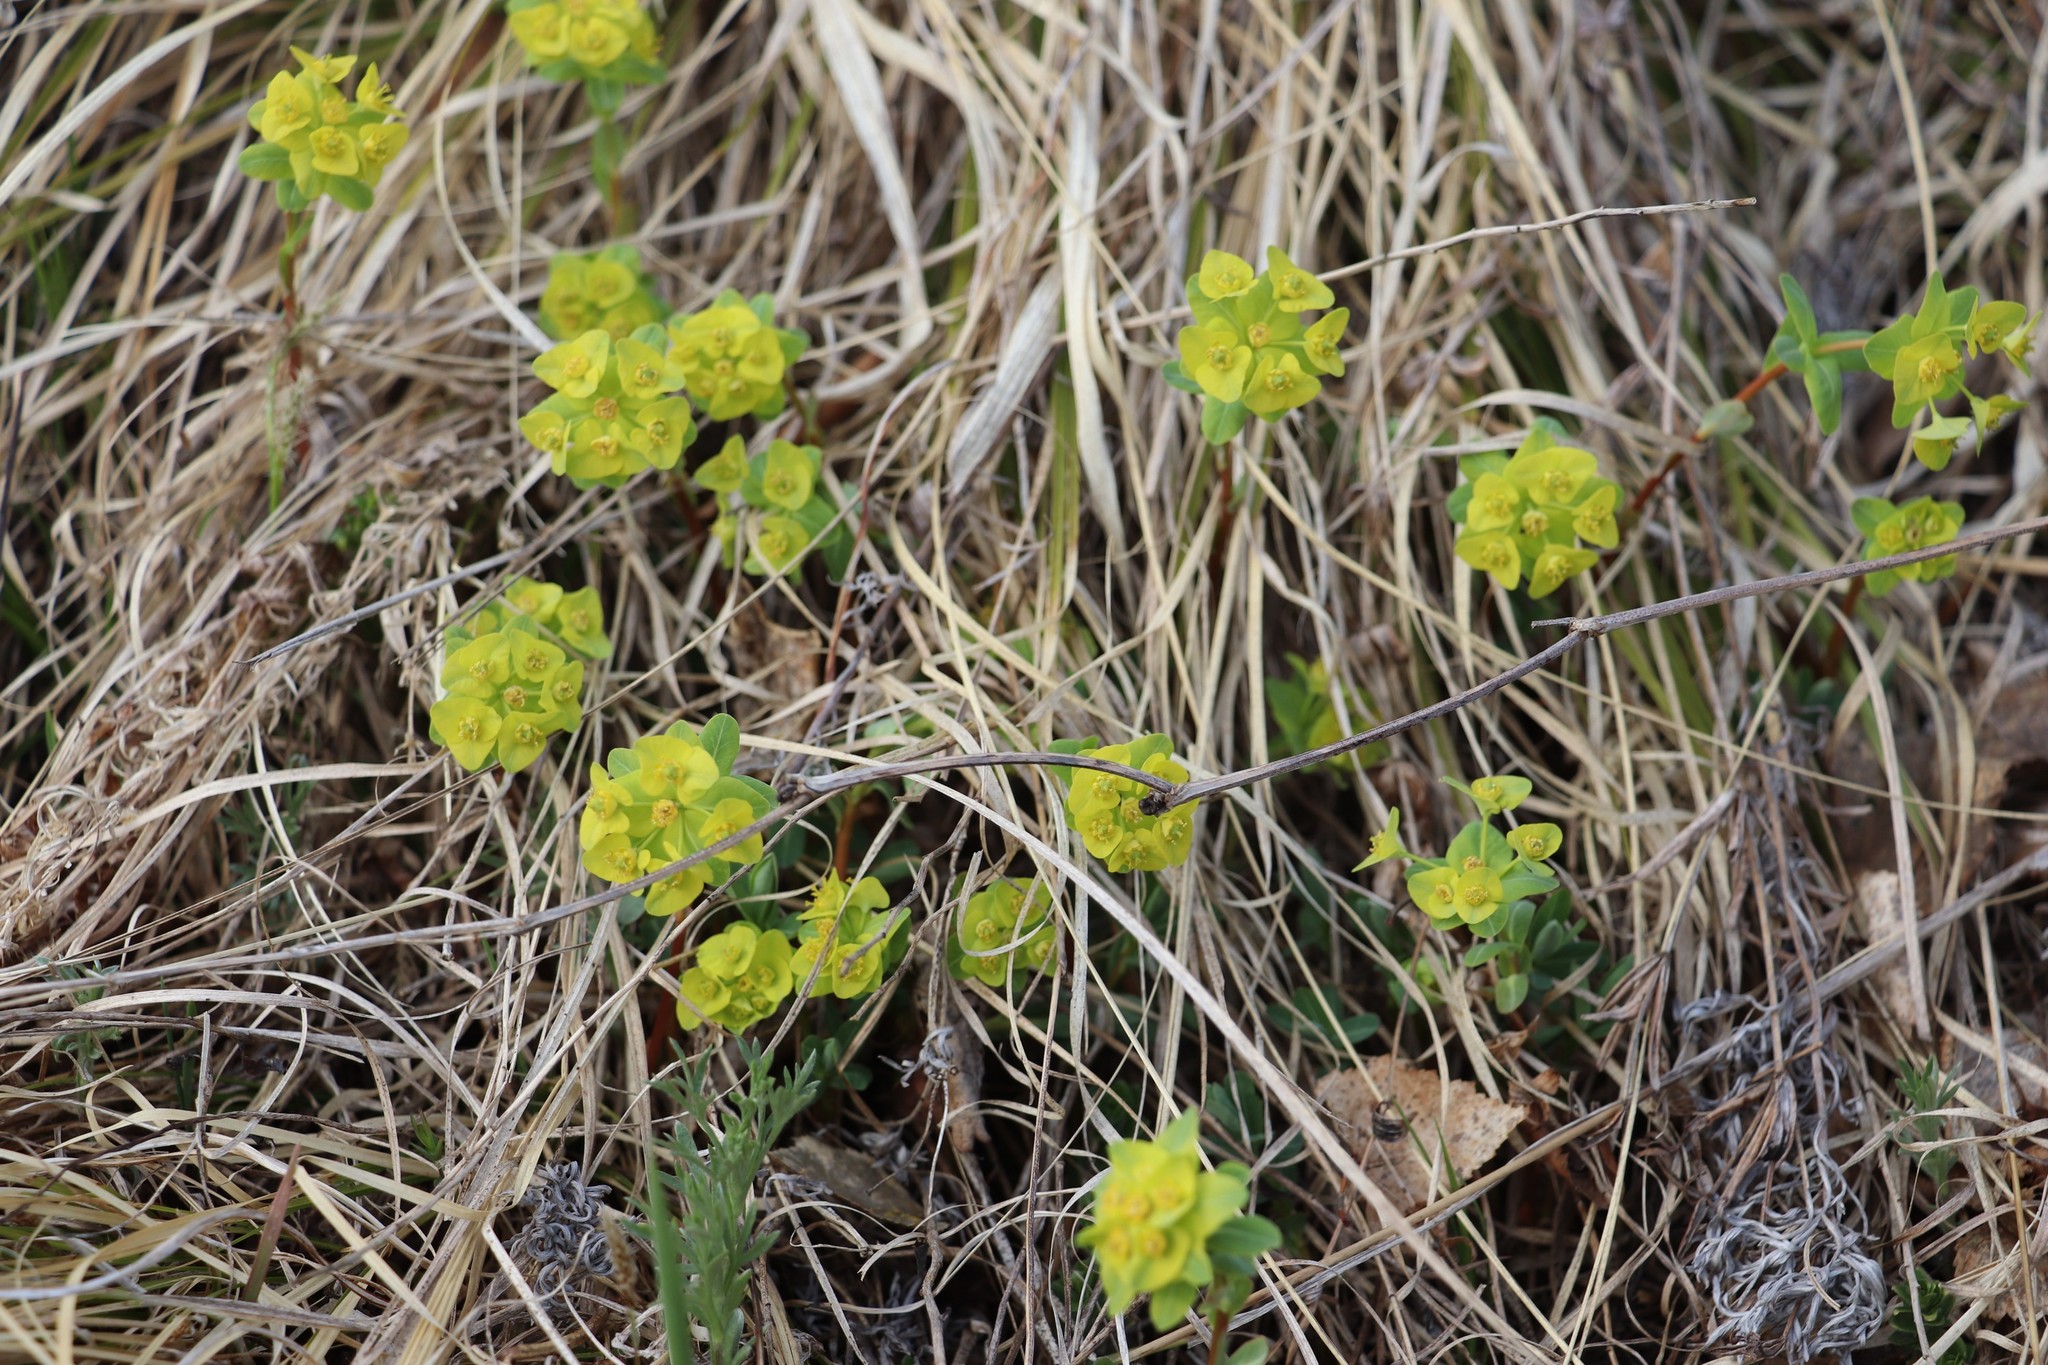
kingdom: Plantae
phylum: Tracheophyta
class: Magnoliopsida
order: Malpighiales
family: Euphorbiaceae
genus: Euphorbia
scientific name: Euphorbia altaica
